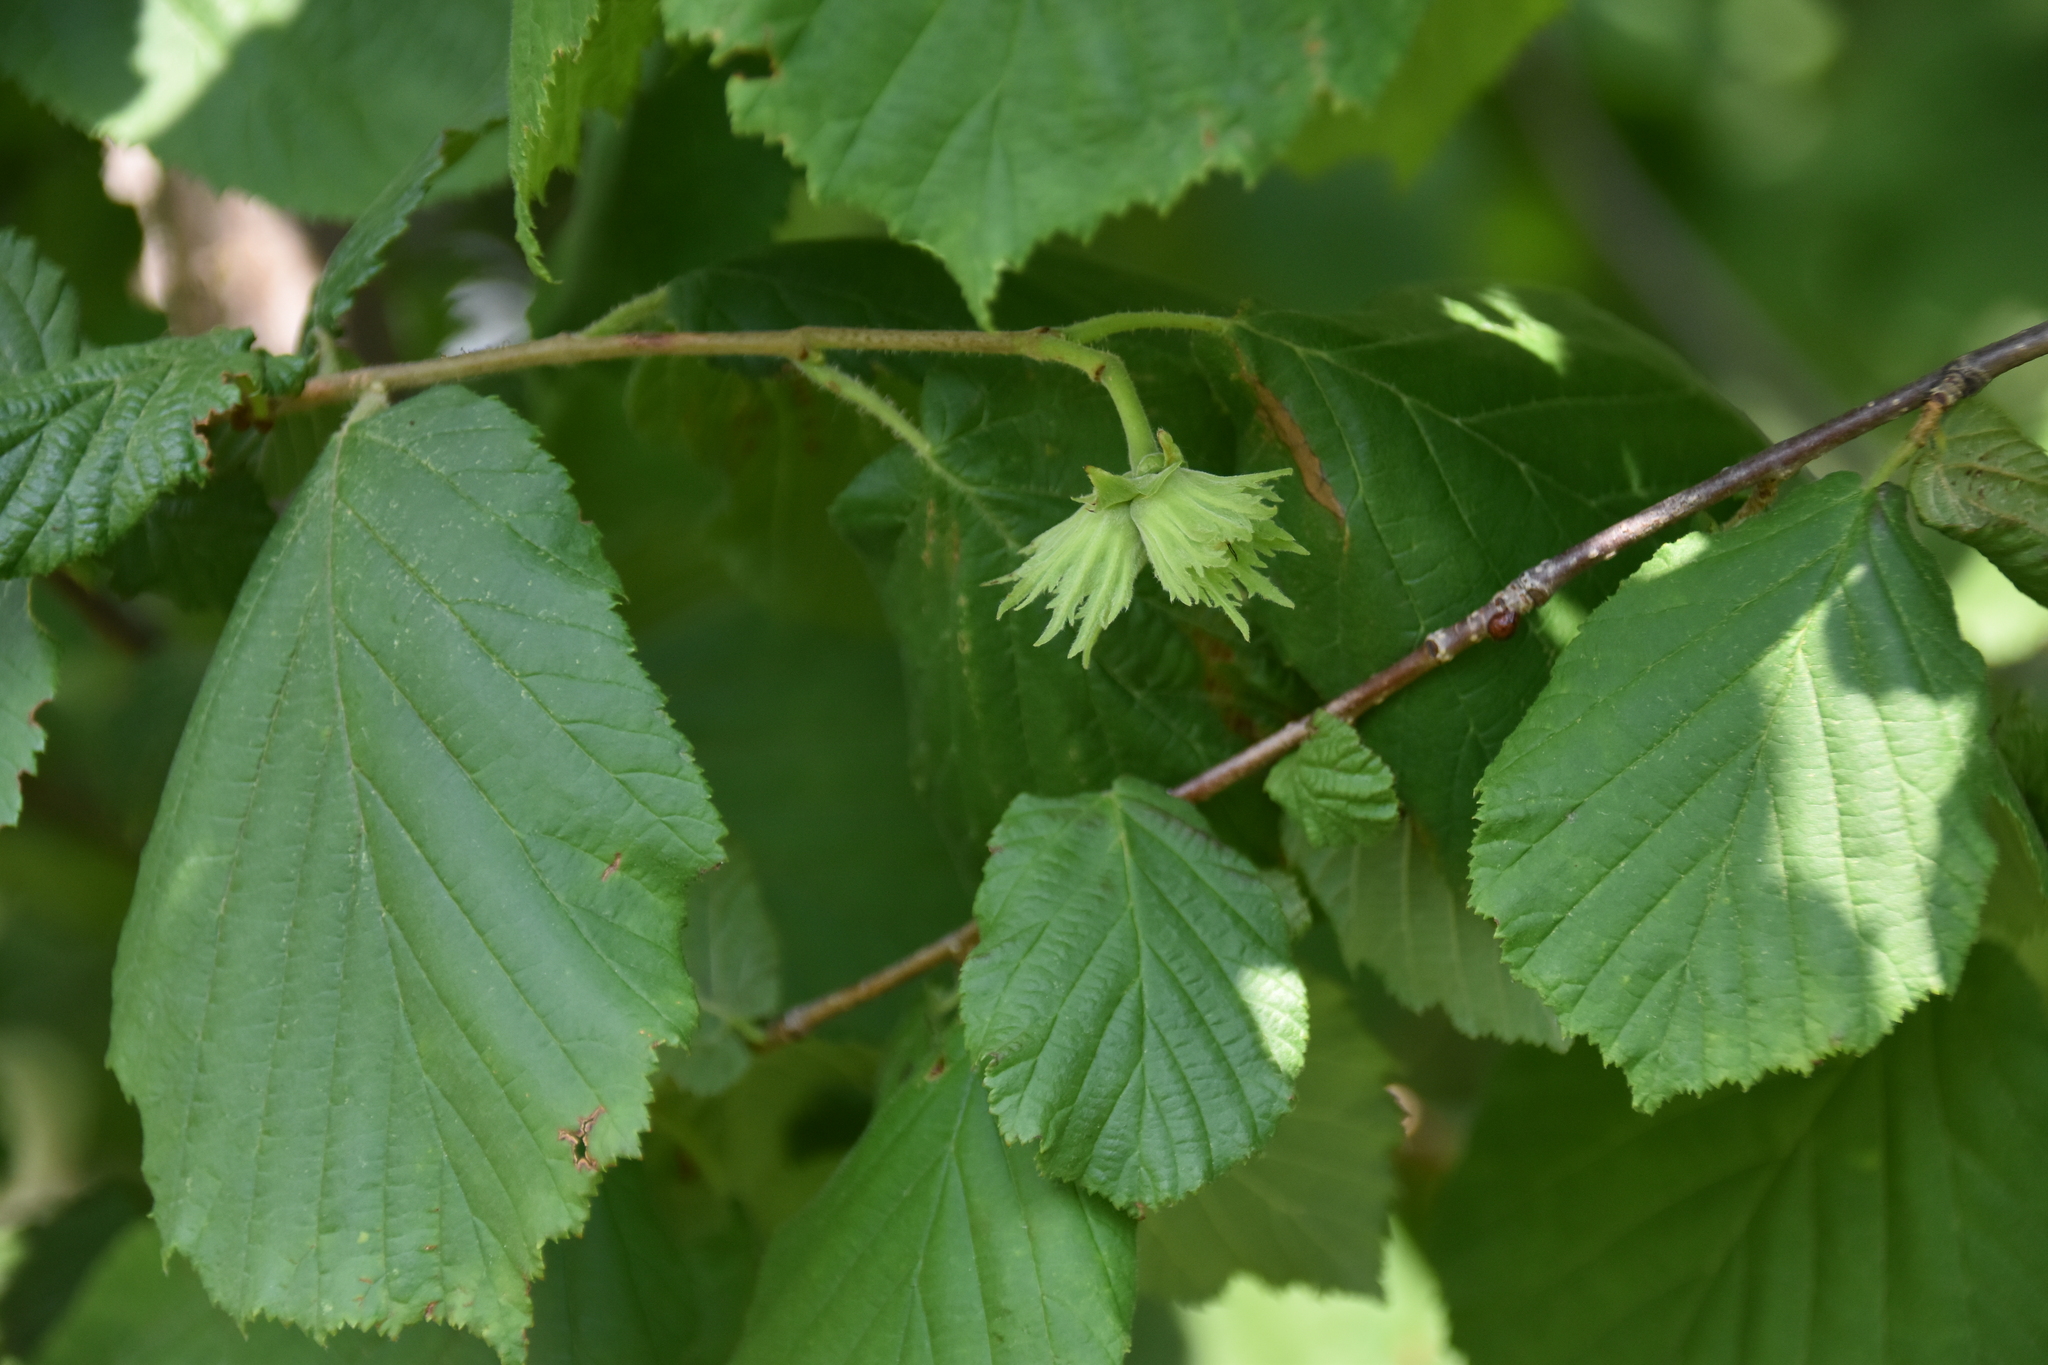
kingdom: Plantae
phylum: Tracheophyta
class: Magnoliopsida
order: Fagales
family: Betulaceae
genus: Corylus
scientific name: Corylus avellana
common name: European hazel
